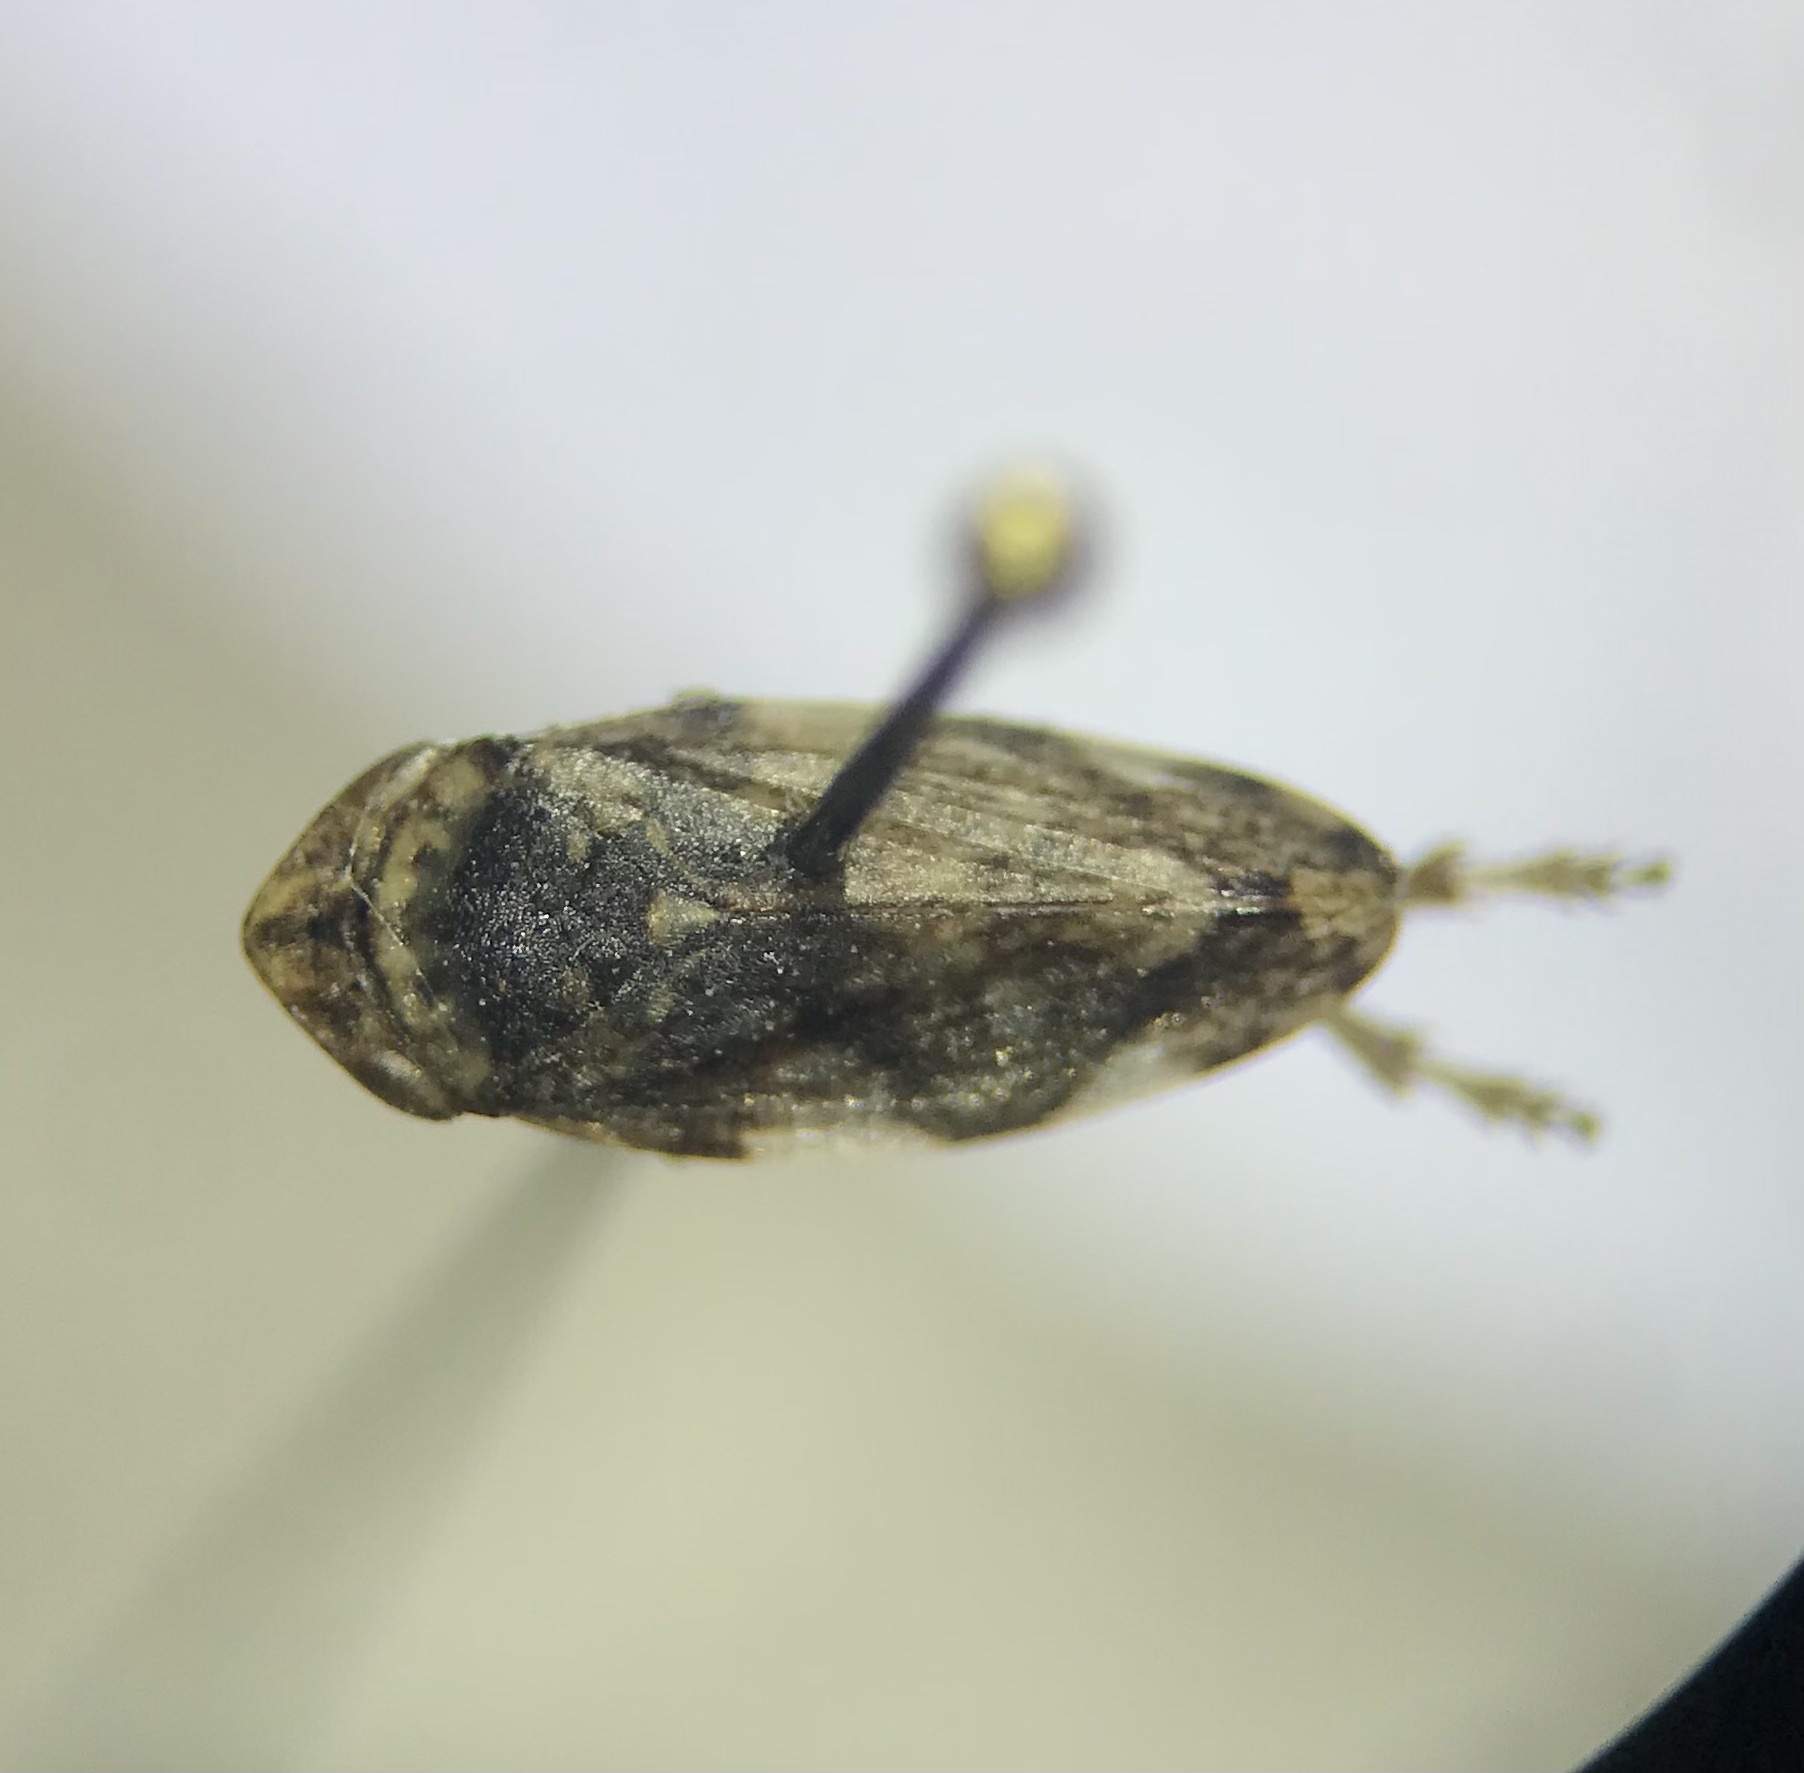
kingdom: Animalia
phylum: Arthropoda
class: Insecta
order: Hemiptera
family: Aphrophoridae
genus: Philaenus
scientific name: Philaenus spumarius
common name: Meadow spittlebug
